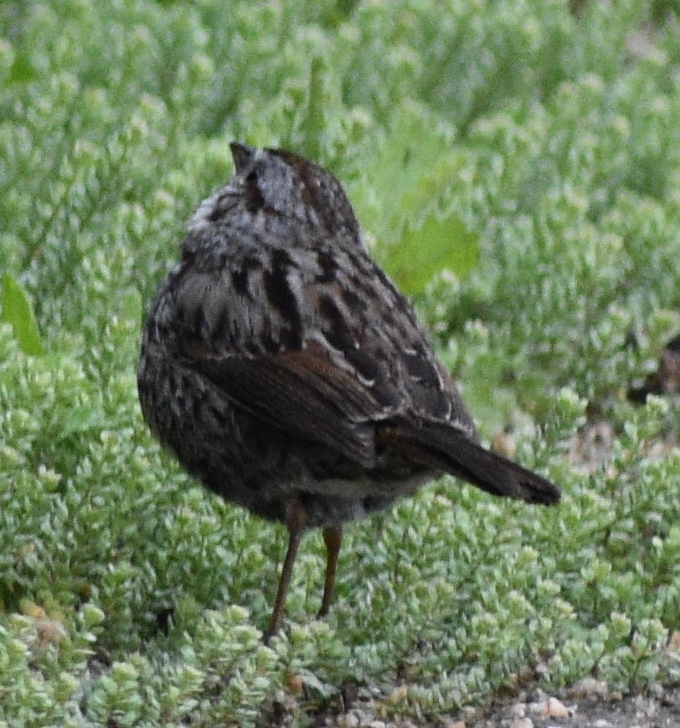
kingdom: Animalia
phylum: Chordata
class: Aves
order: Passeriformes
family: Passerellidae
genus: Melospiza
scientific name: Melospiza melodia
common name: Song sparrow
